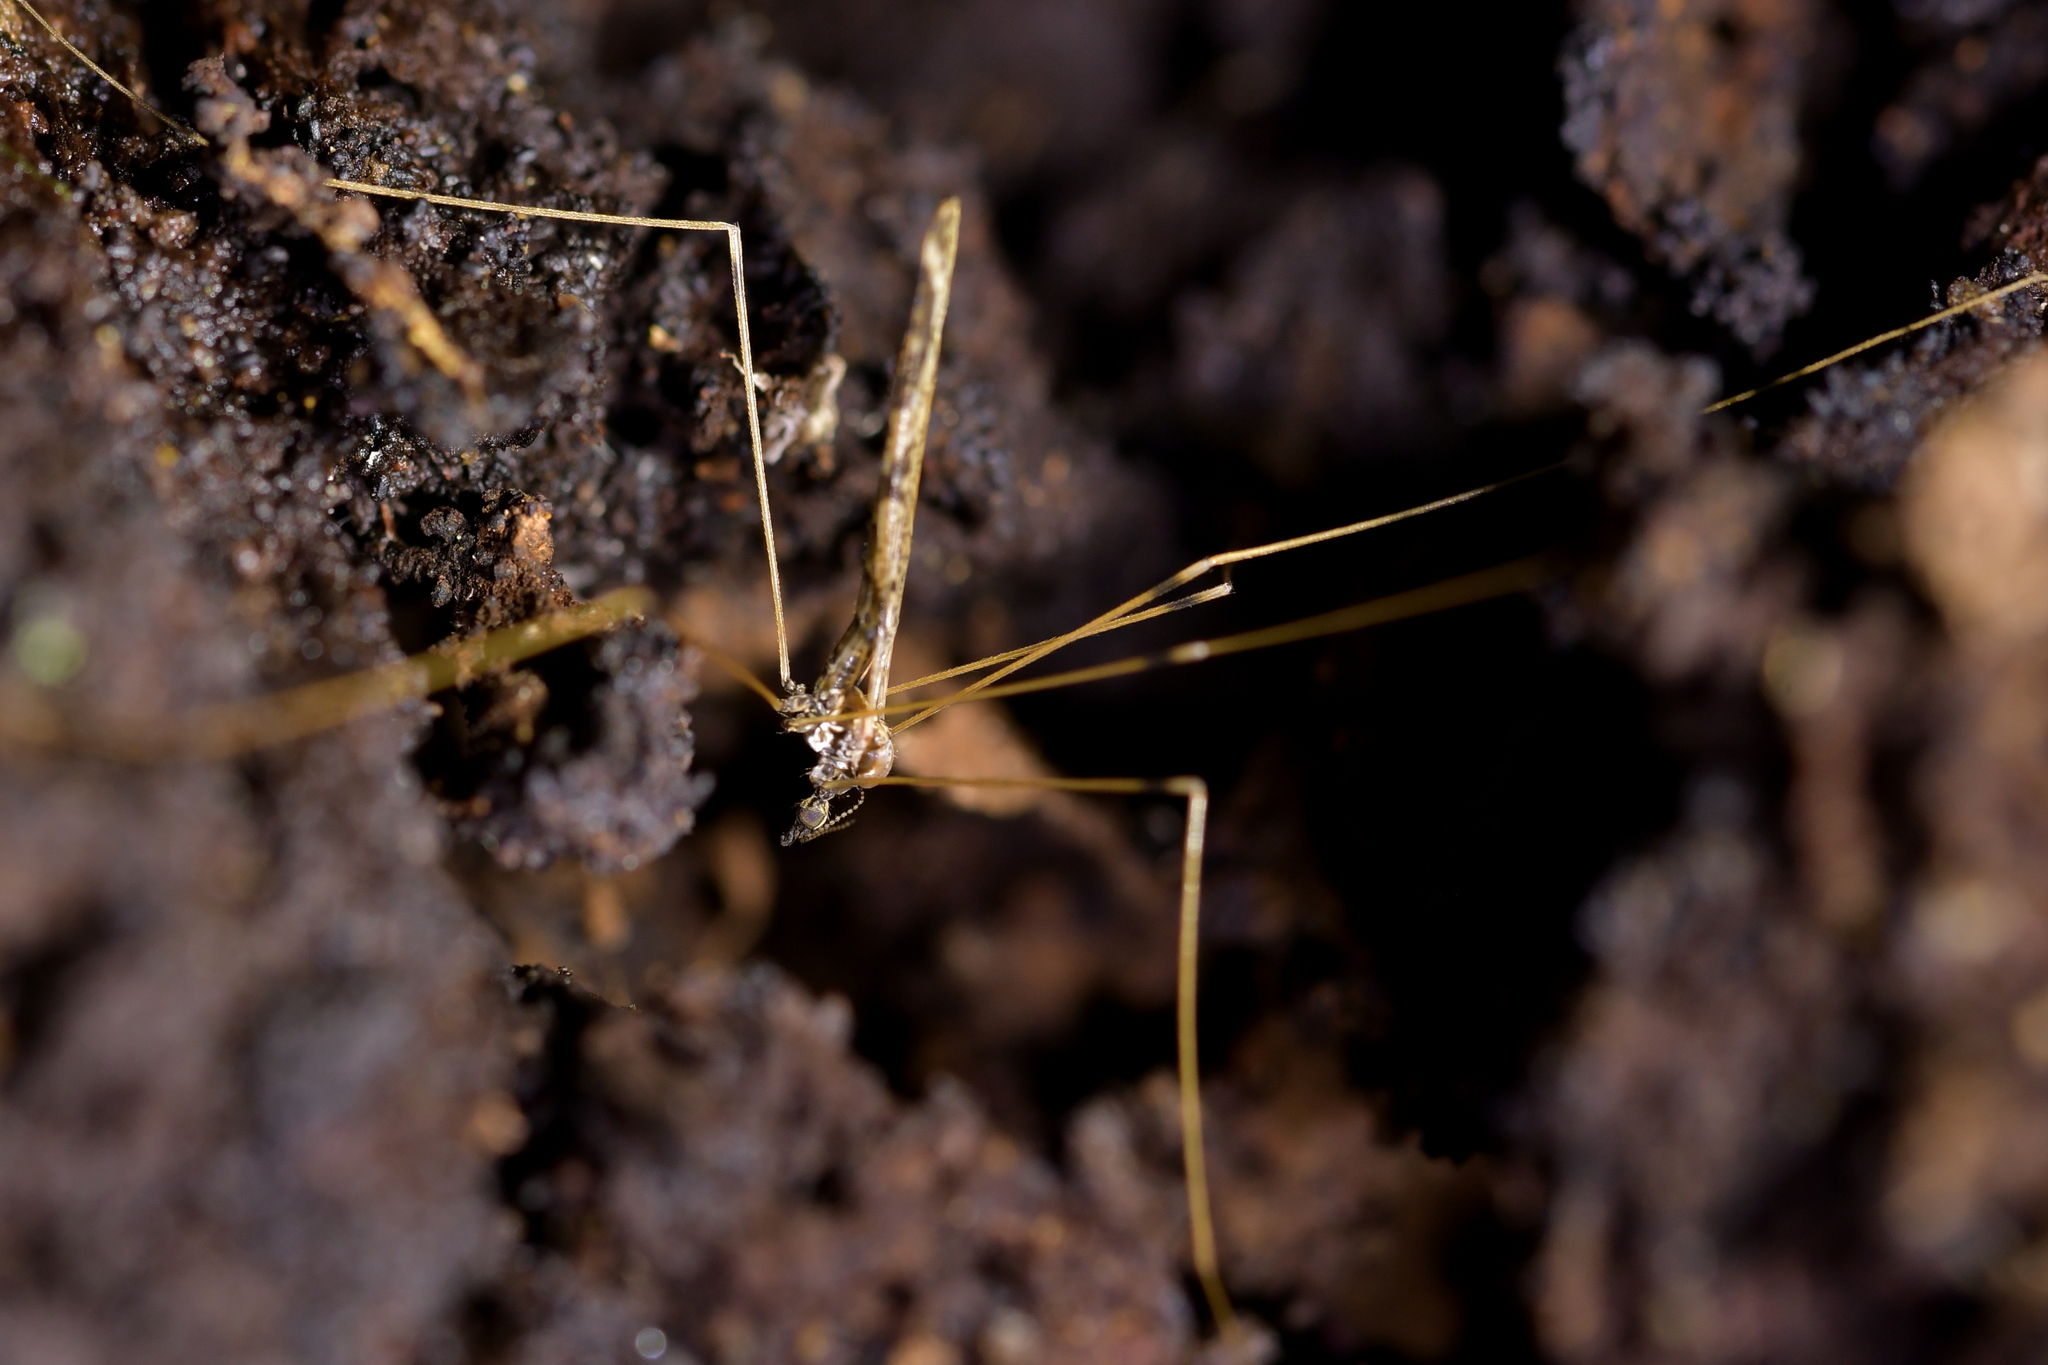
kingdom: Animalia
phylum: Arthropoda
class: Insecta
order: Diptera
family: Limoniidae
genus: Discobola
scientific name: Discobola striata
